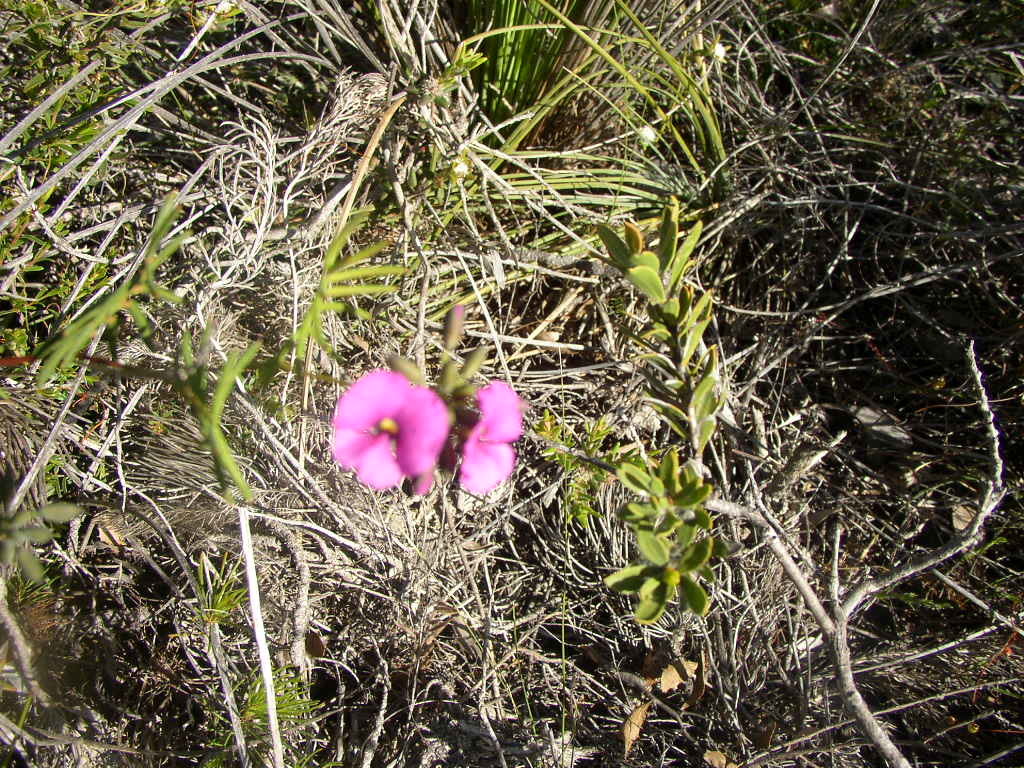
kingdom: Plantae
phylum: Tracheophyta
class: Magnoliopsida
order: Fabales
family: Fabaceae
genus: Gompholobium
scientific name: Gompholobium knightianum
